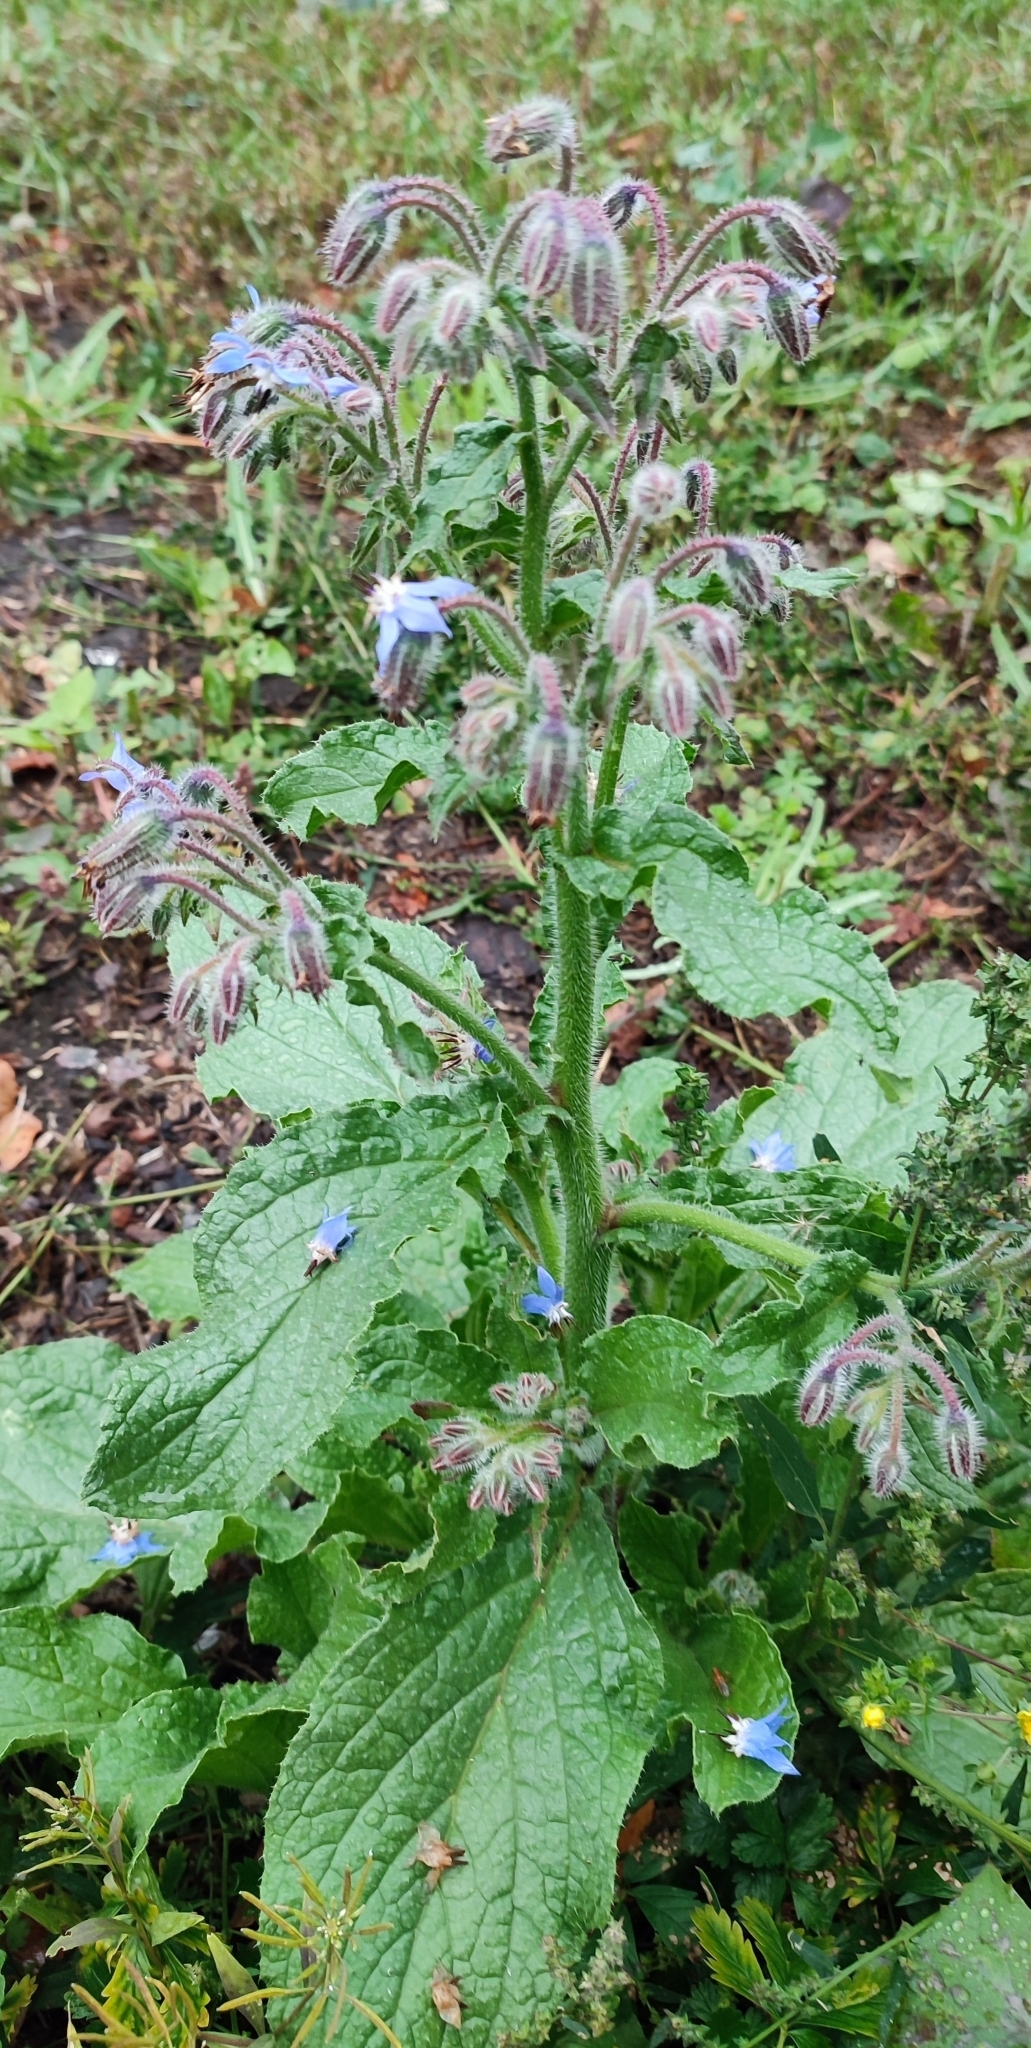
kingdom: Plantae
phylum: Tracheophyta
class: Magnoliopsida
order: Boraginales
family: Boraginaceae
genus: Borago
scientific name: Borago officinalis
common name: Borage
